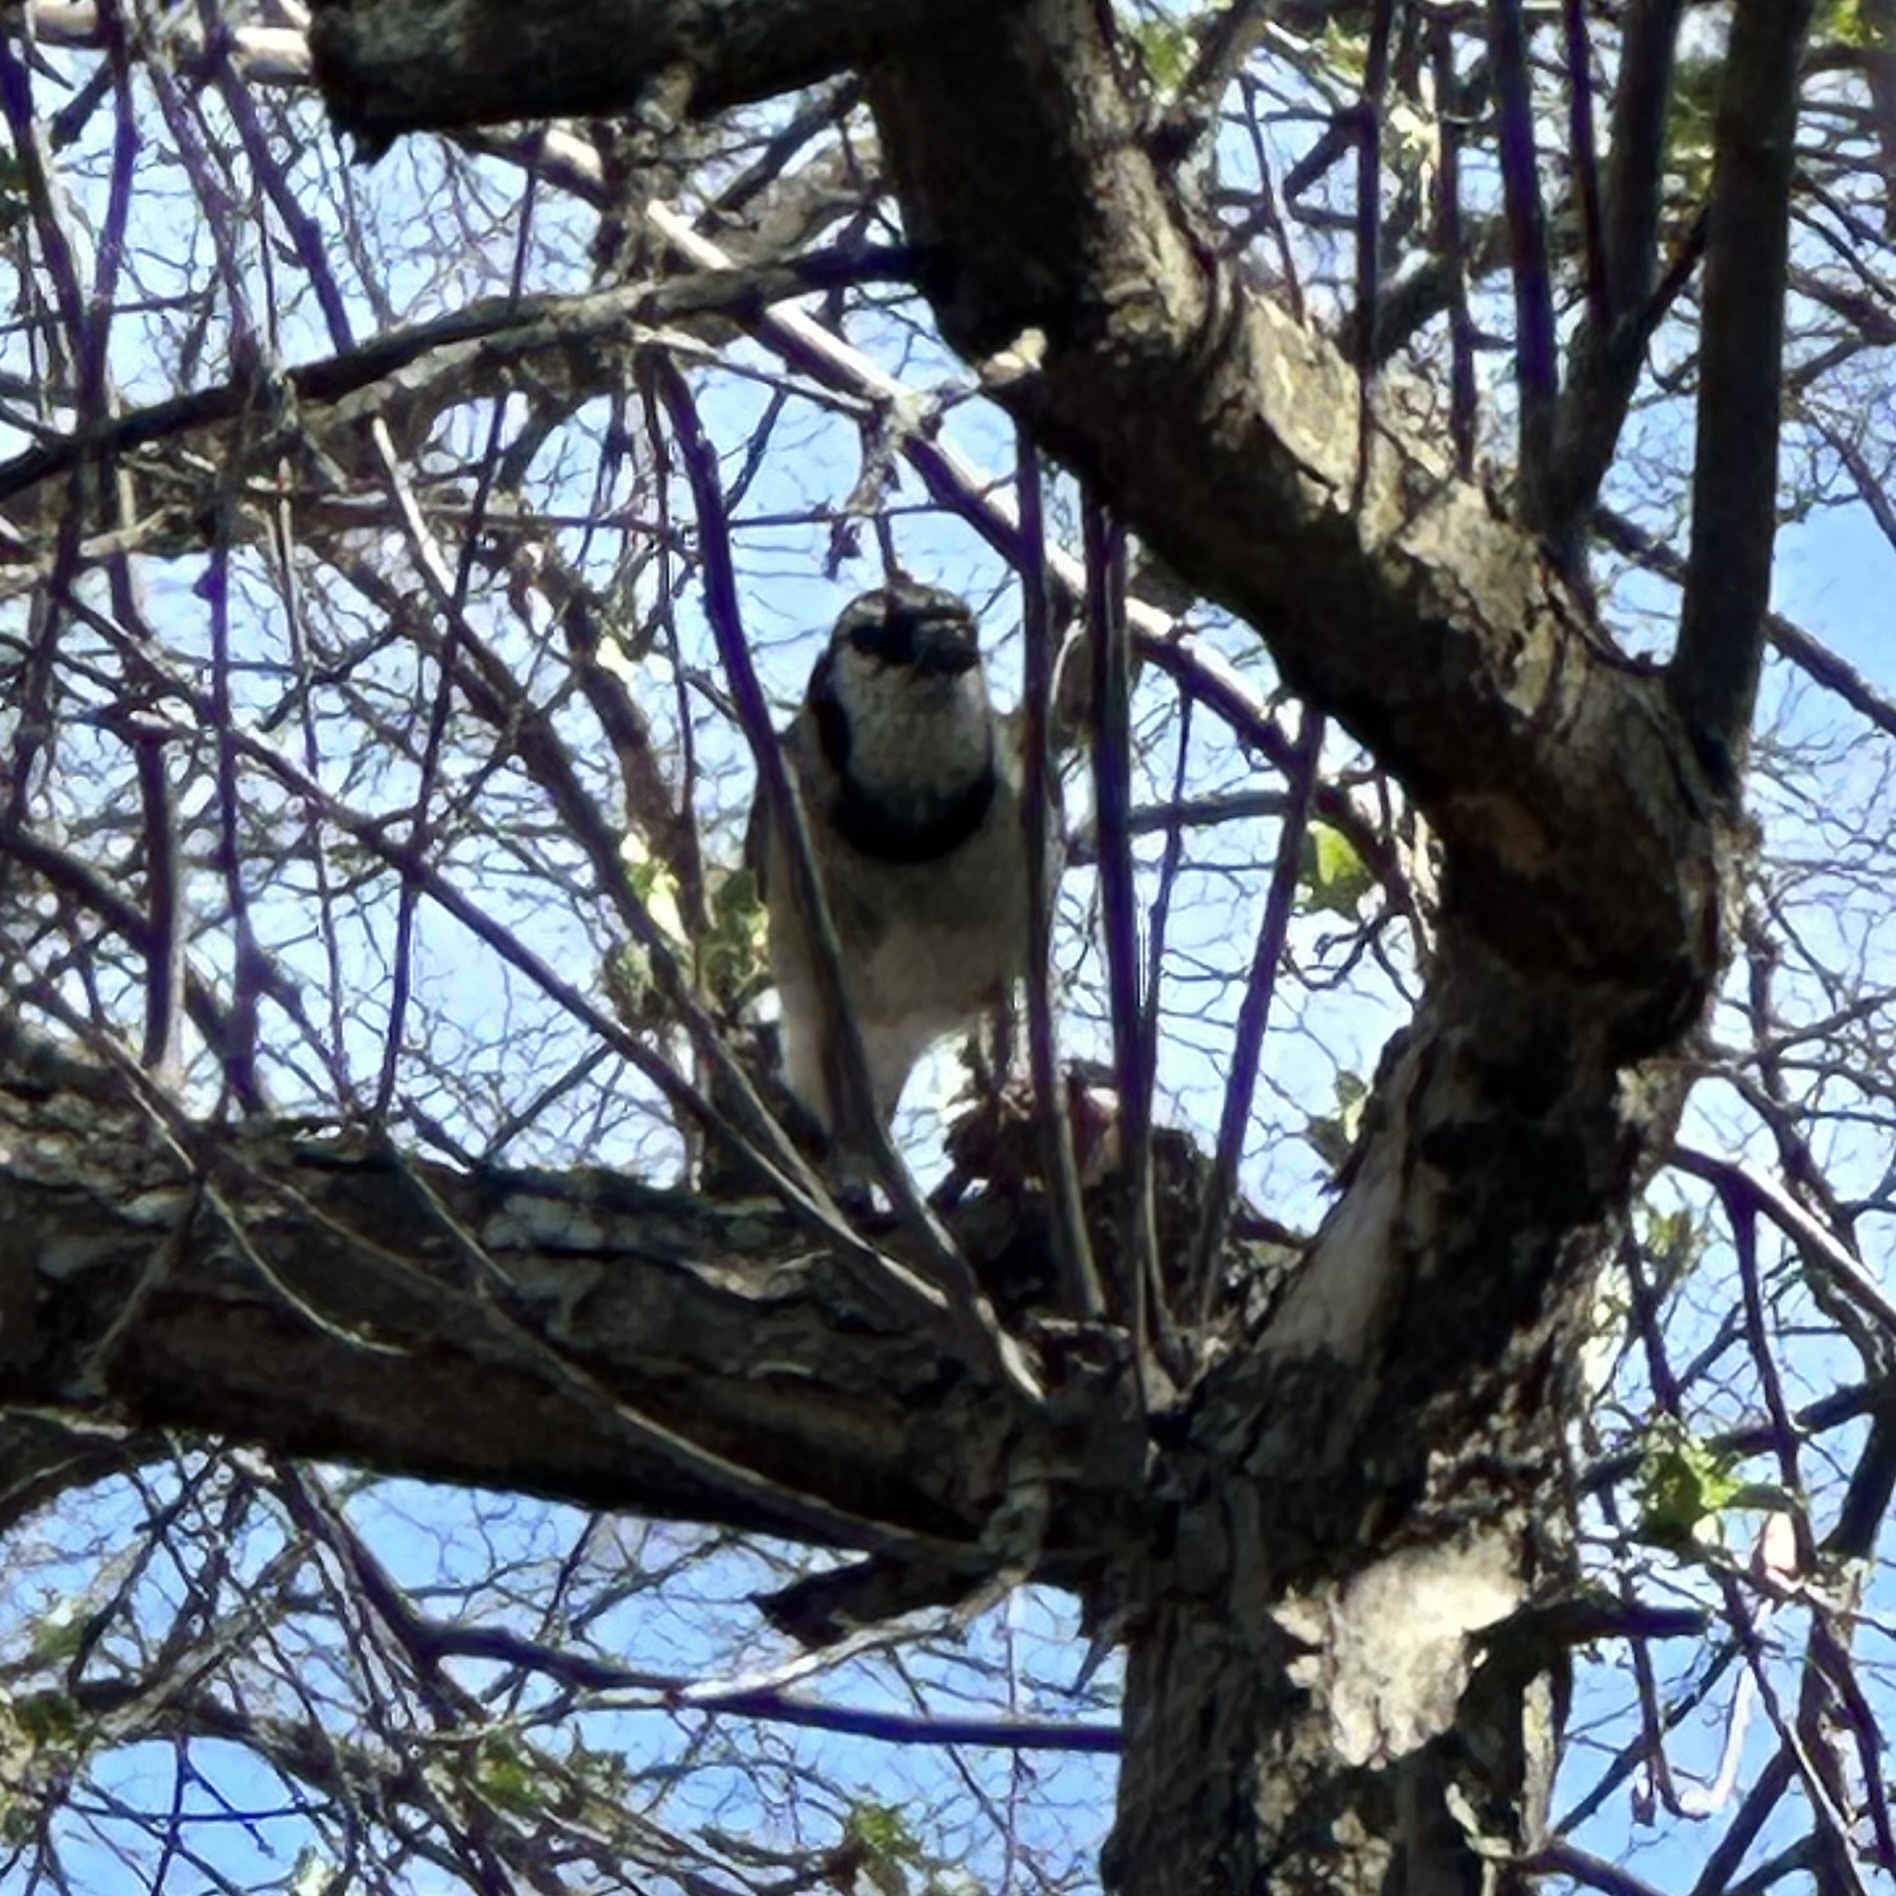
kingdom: Animalia
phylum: Chordata
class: Aves
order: Passeriformes
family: Corvidae
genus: Cyanocitta
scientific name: Cyanocitta cristata
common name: Blue jay
